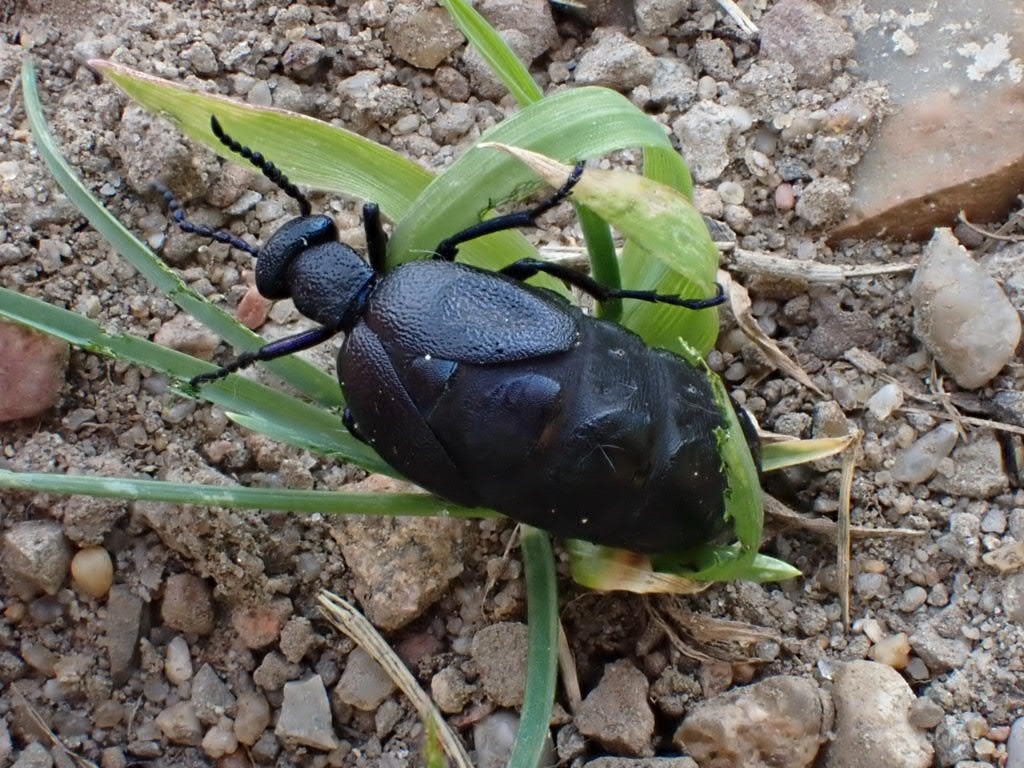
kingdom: Animalia
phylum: Arthropoda
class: Insecta
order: Coleoptera
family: Meloidae
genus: Meloe
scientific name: Meloe proscarabaeus
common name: Black oil-beetle
